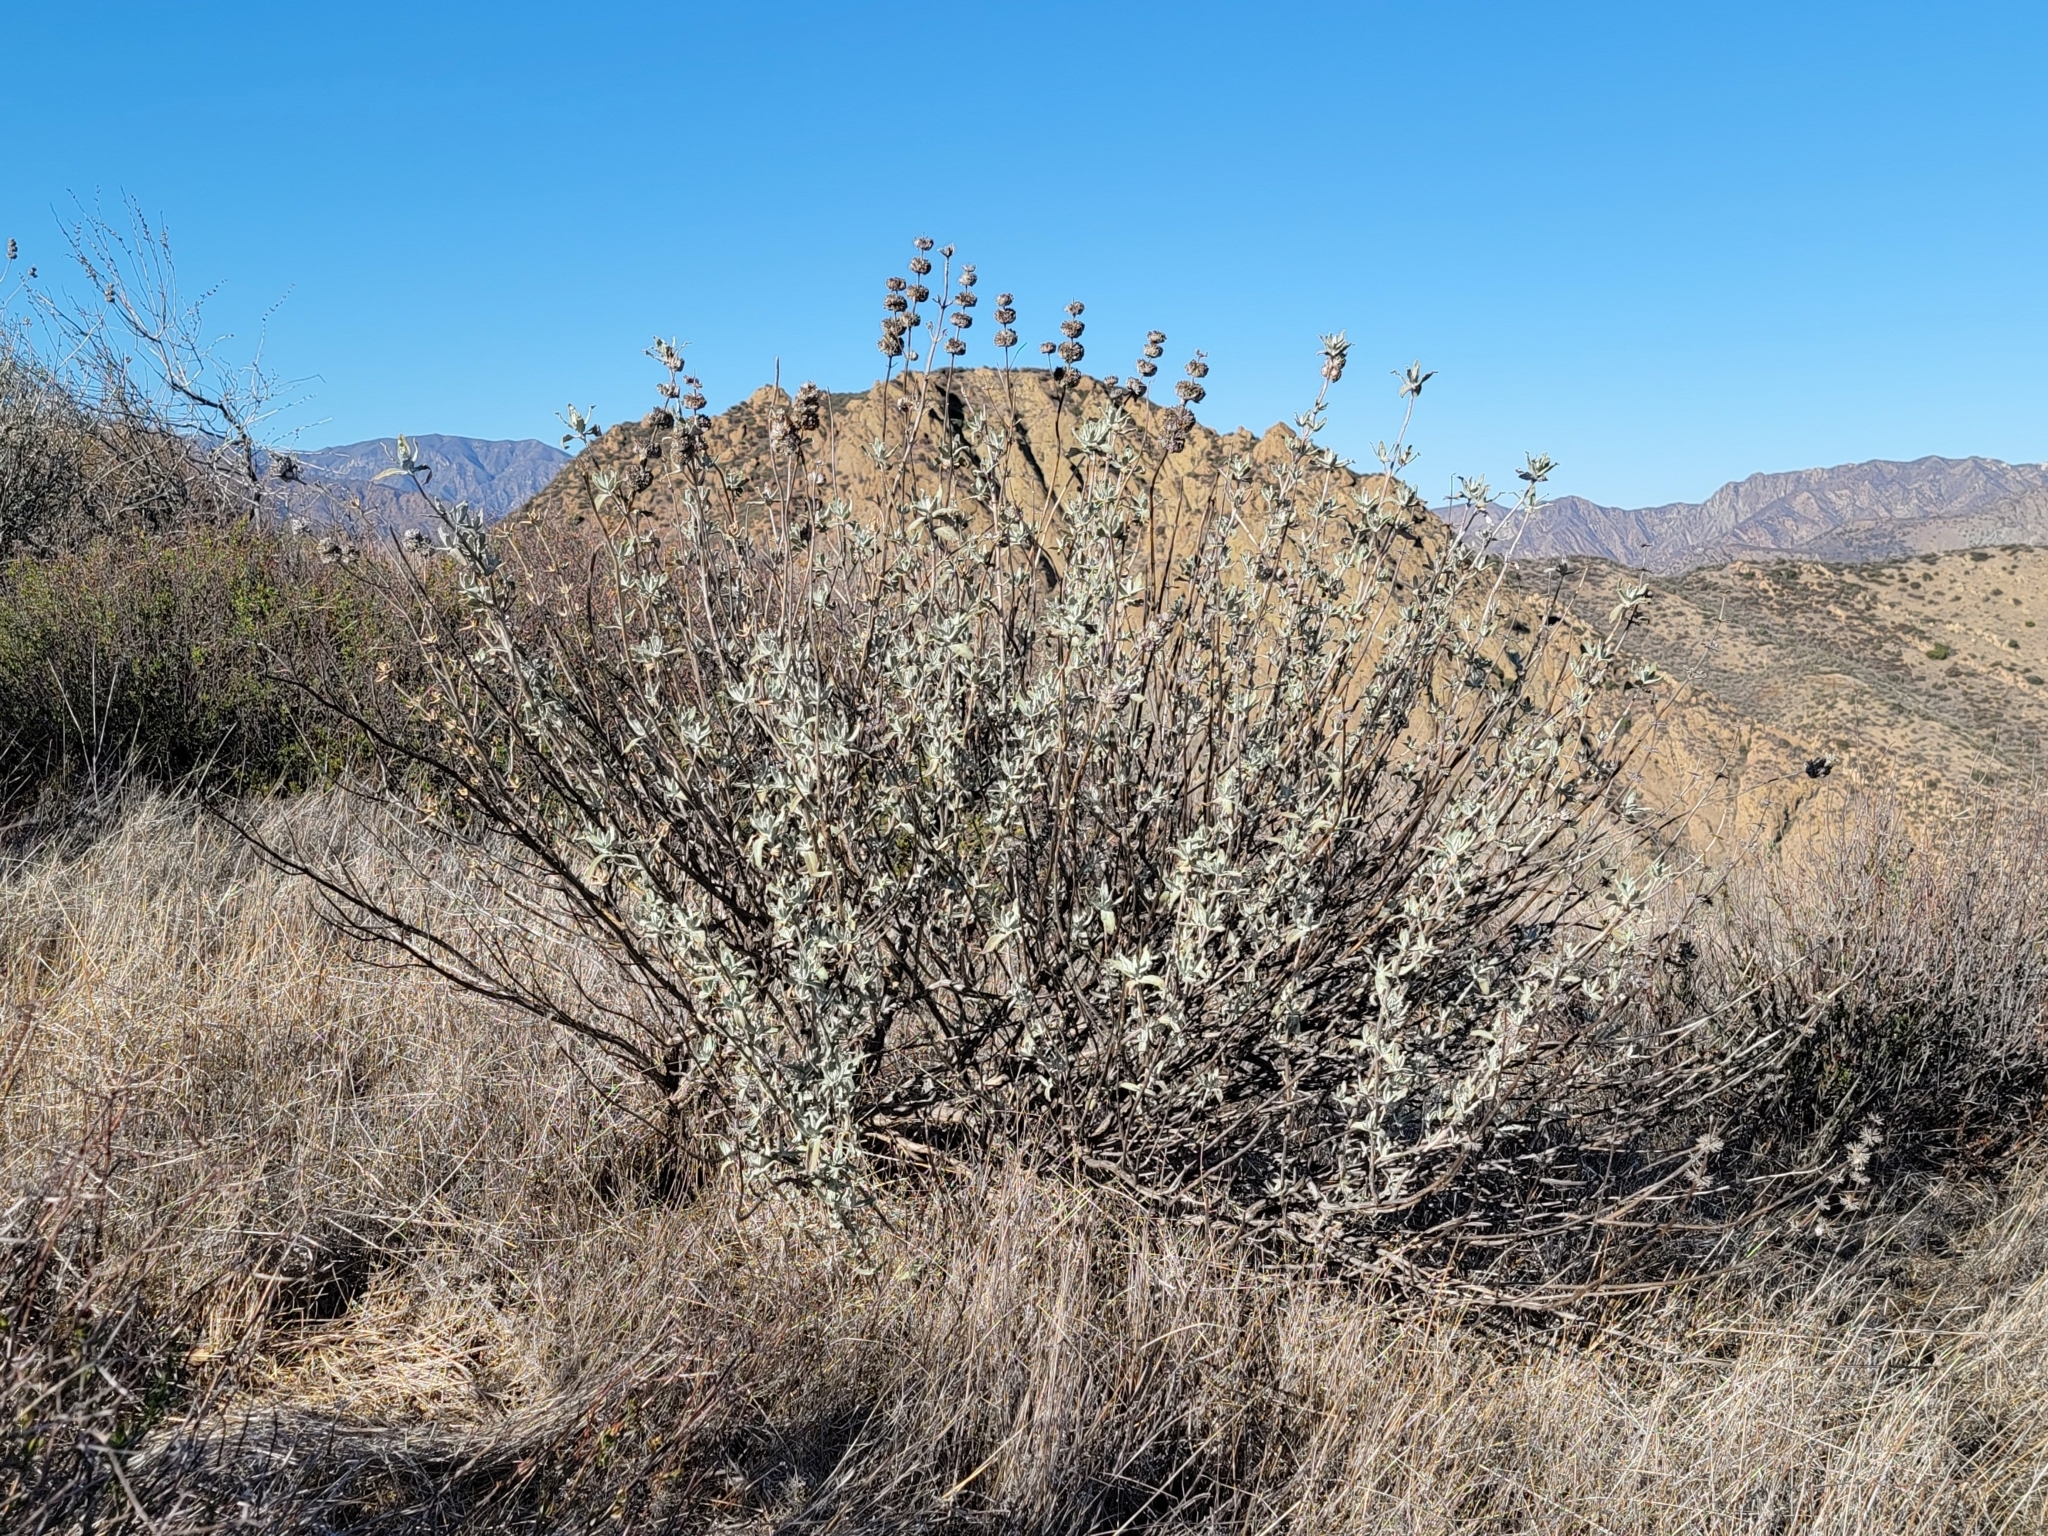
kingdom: Plantae
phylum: Tracheophyta
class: Magnoliopsida
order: Lamiales
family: Lamiaceae
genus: Salvia
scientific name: Salvia leucophylla
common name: Purple sage
